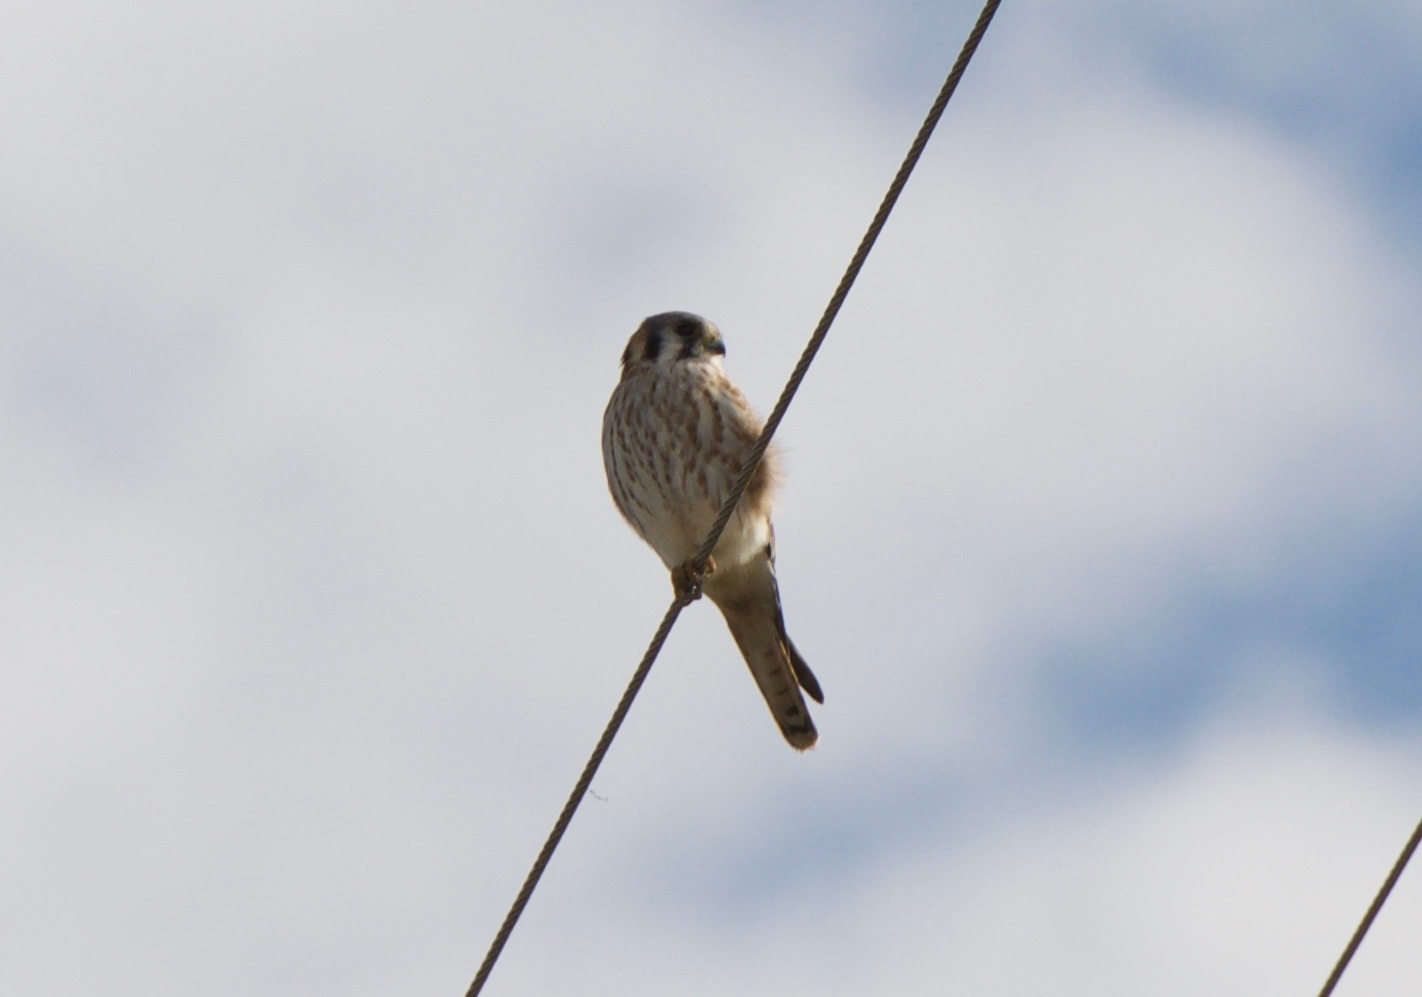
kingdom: Animalia
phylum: Chordata
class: Aves
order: Falconiformes
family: Falconidae
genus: Falco
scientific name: Falco sparverius
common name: American kestrel
